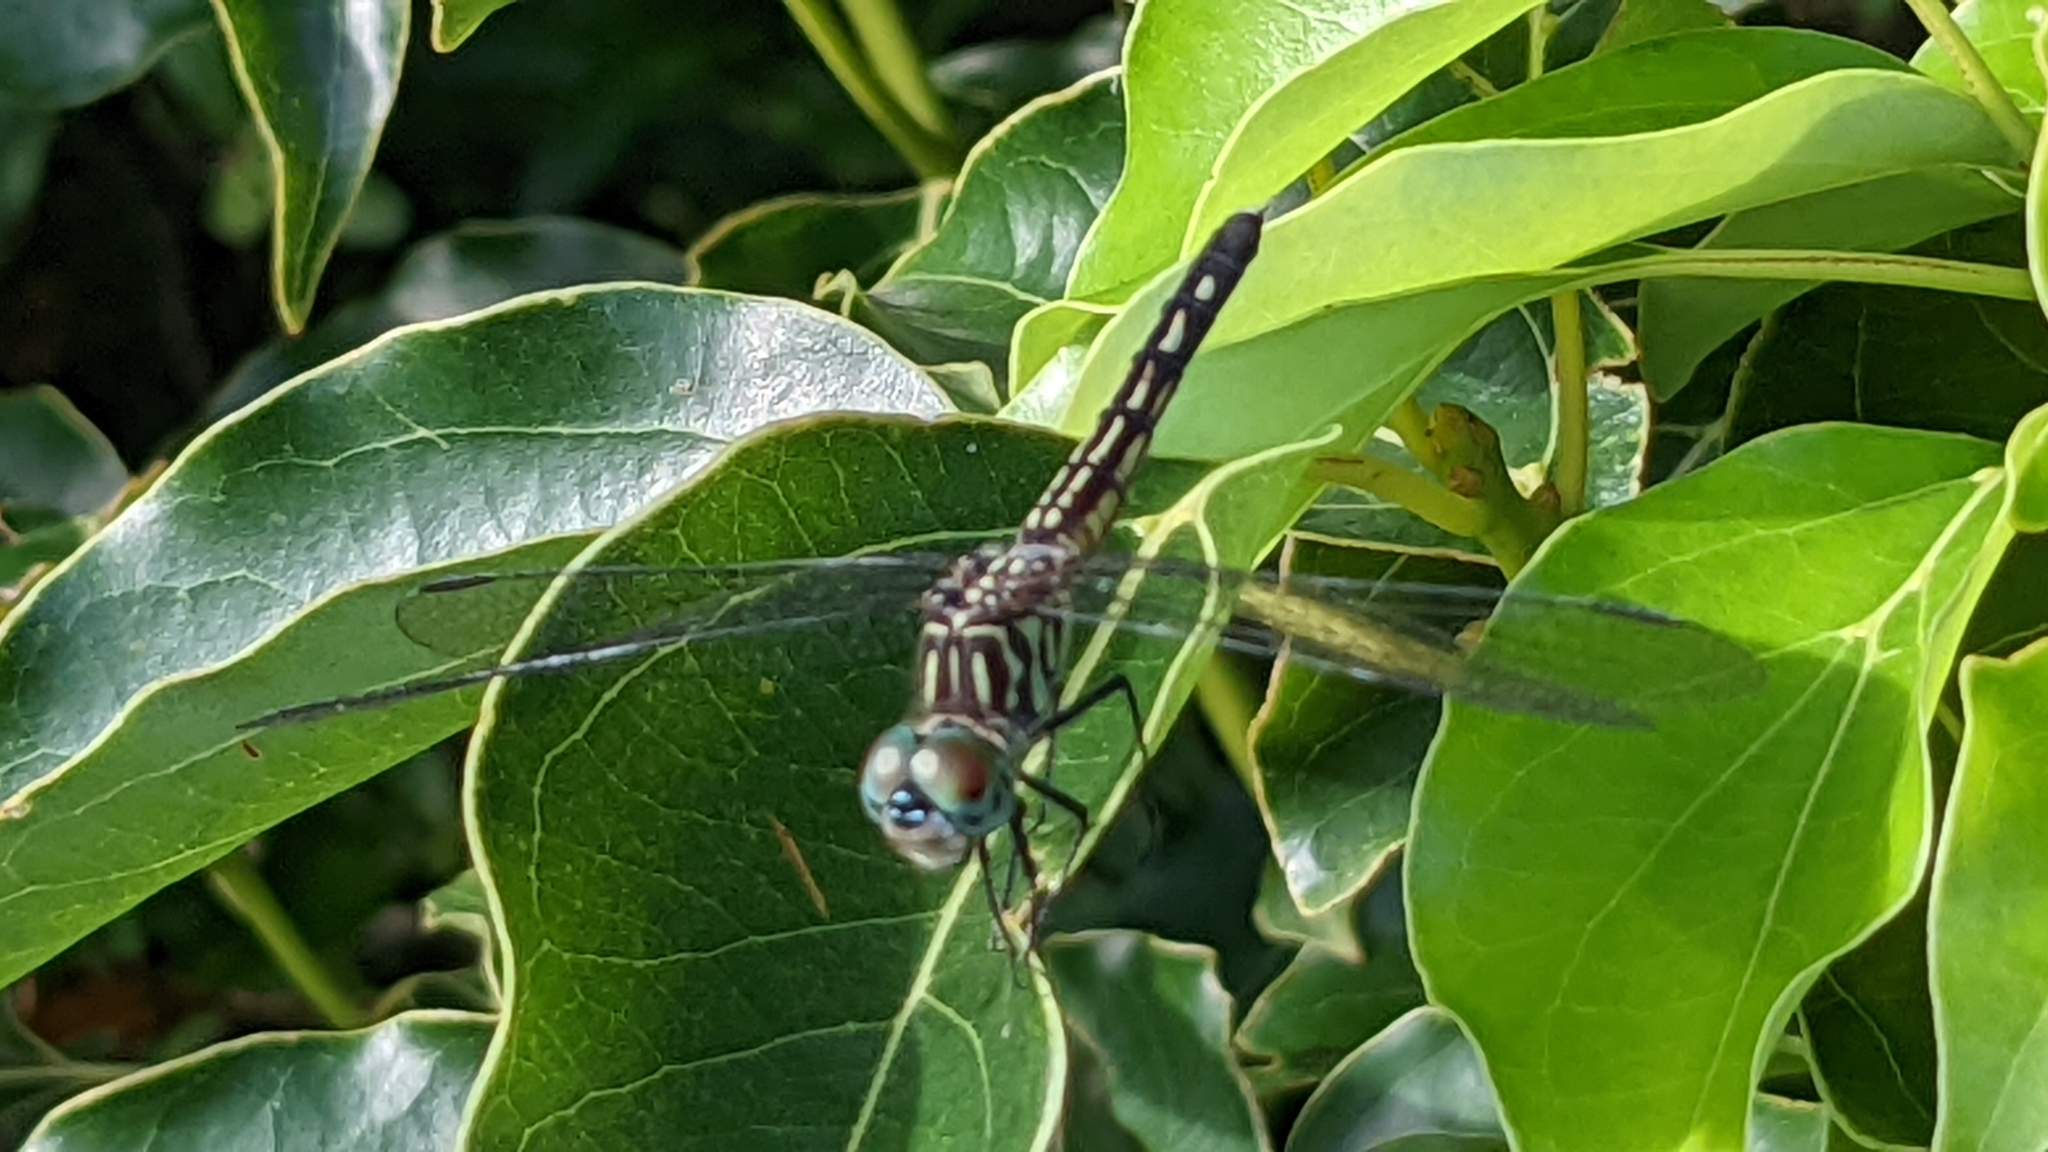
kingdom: Animalia
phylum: Arthropoda
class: Insecta
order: Odonata
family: Libellulidae
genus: Pachydiplax
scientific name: Pachydiplax longipennis
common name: Blue dasher
